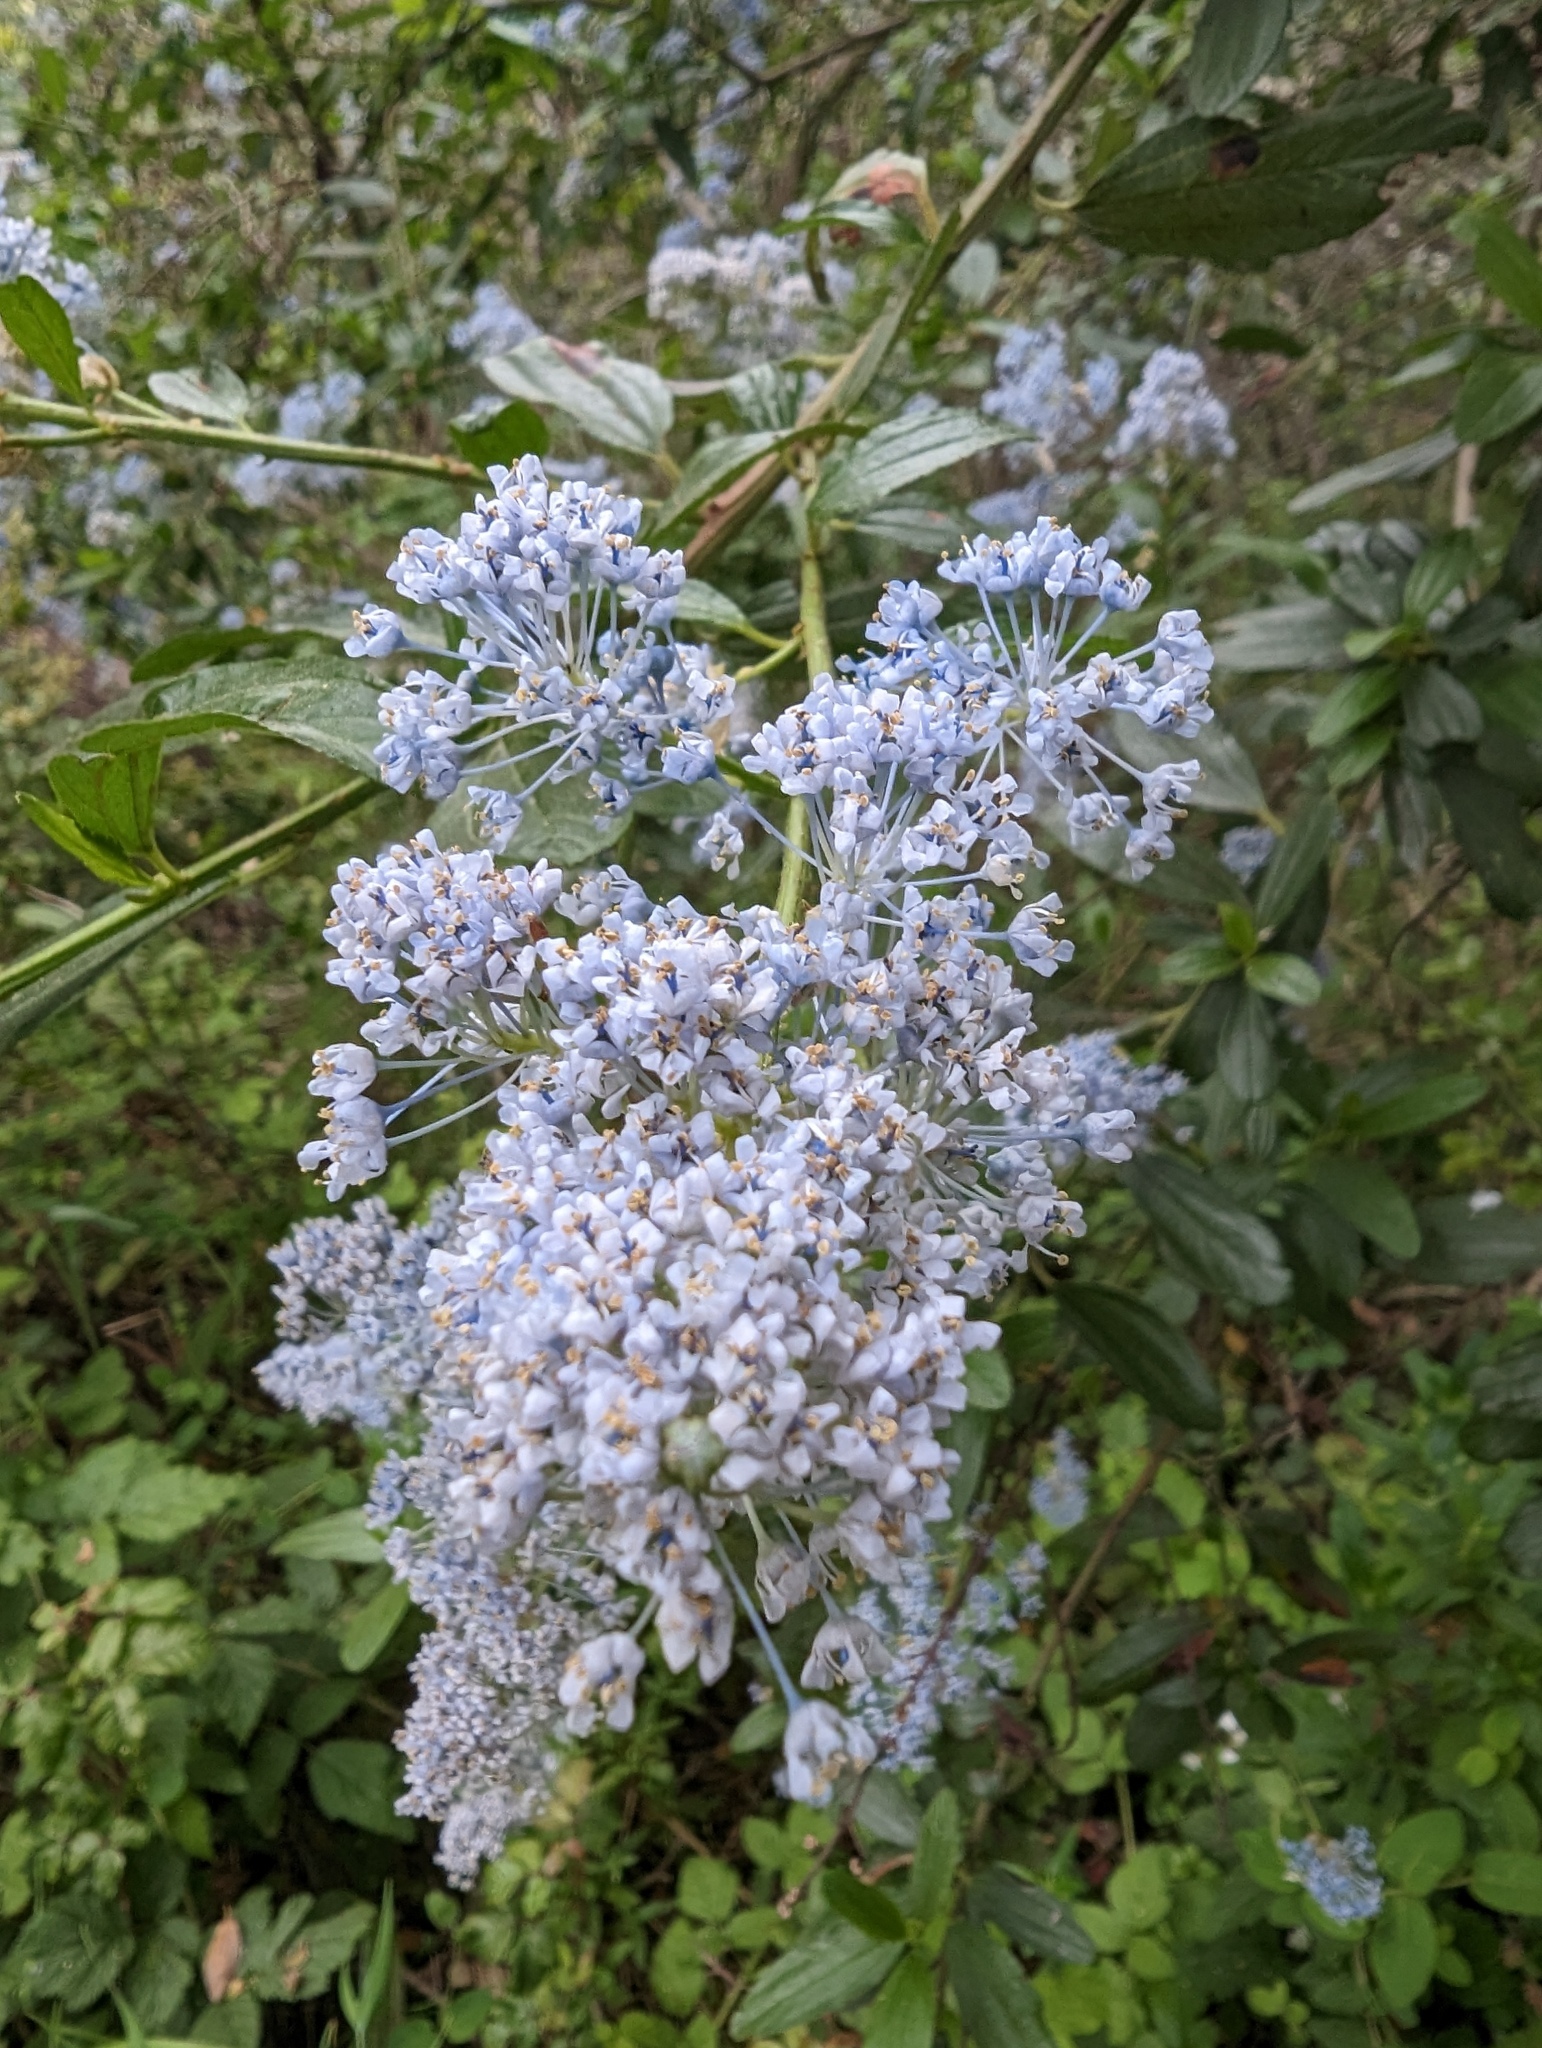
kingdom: Plantae
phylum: Tracheophyta
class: Magnoliopsida
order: Rosales
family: Rhamnaceae
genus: Ceanothus
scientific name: Ceanothus thyrsiflorus
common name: California-lilac
